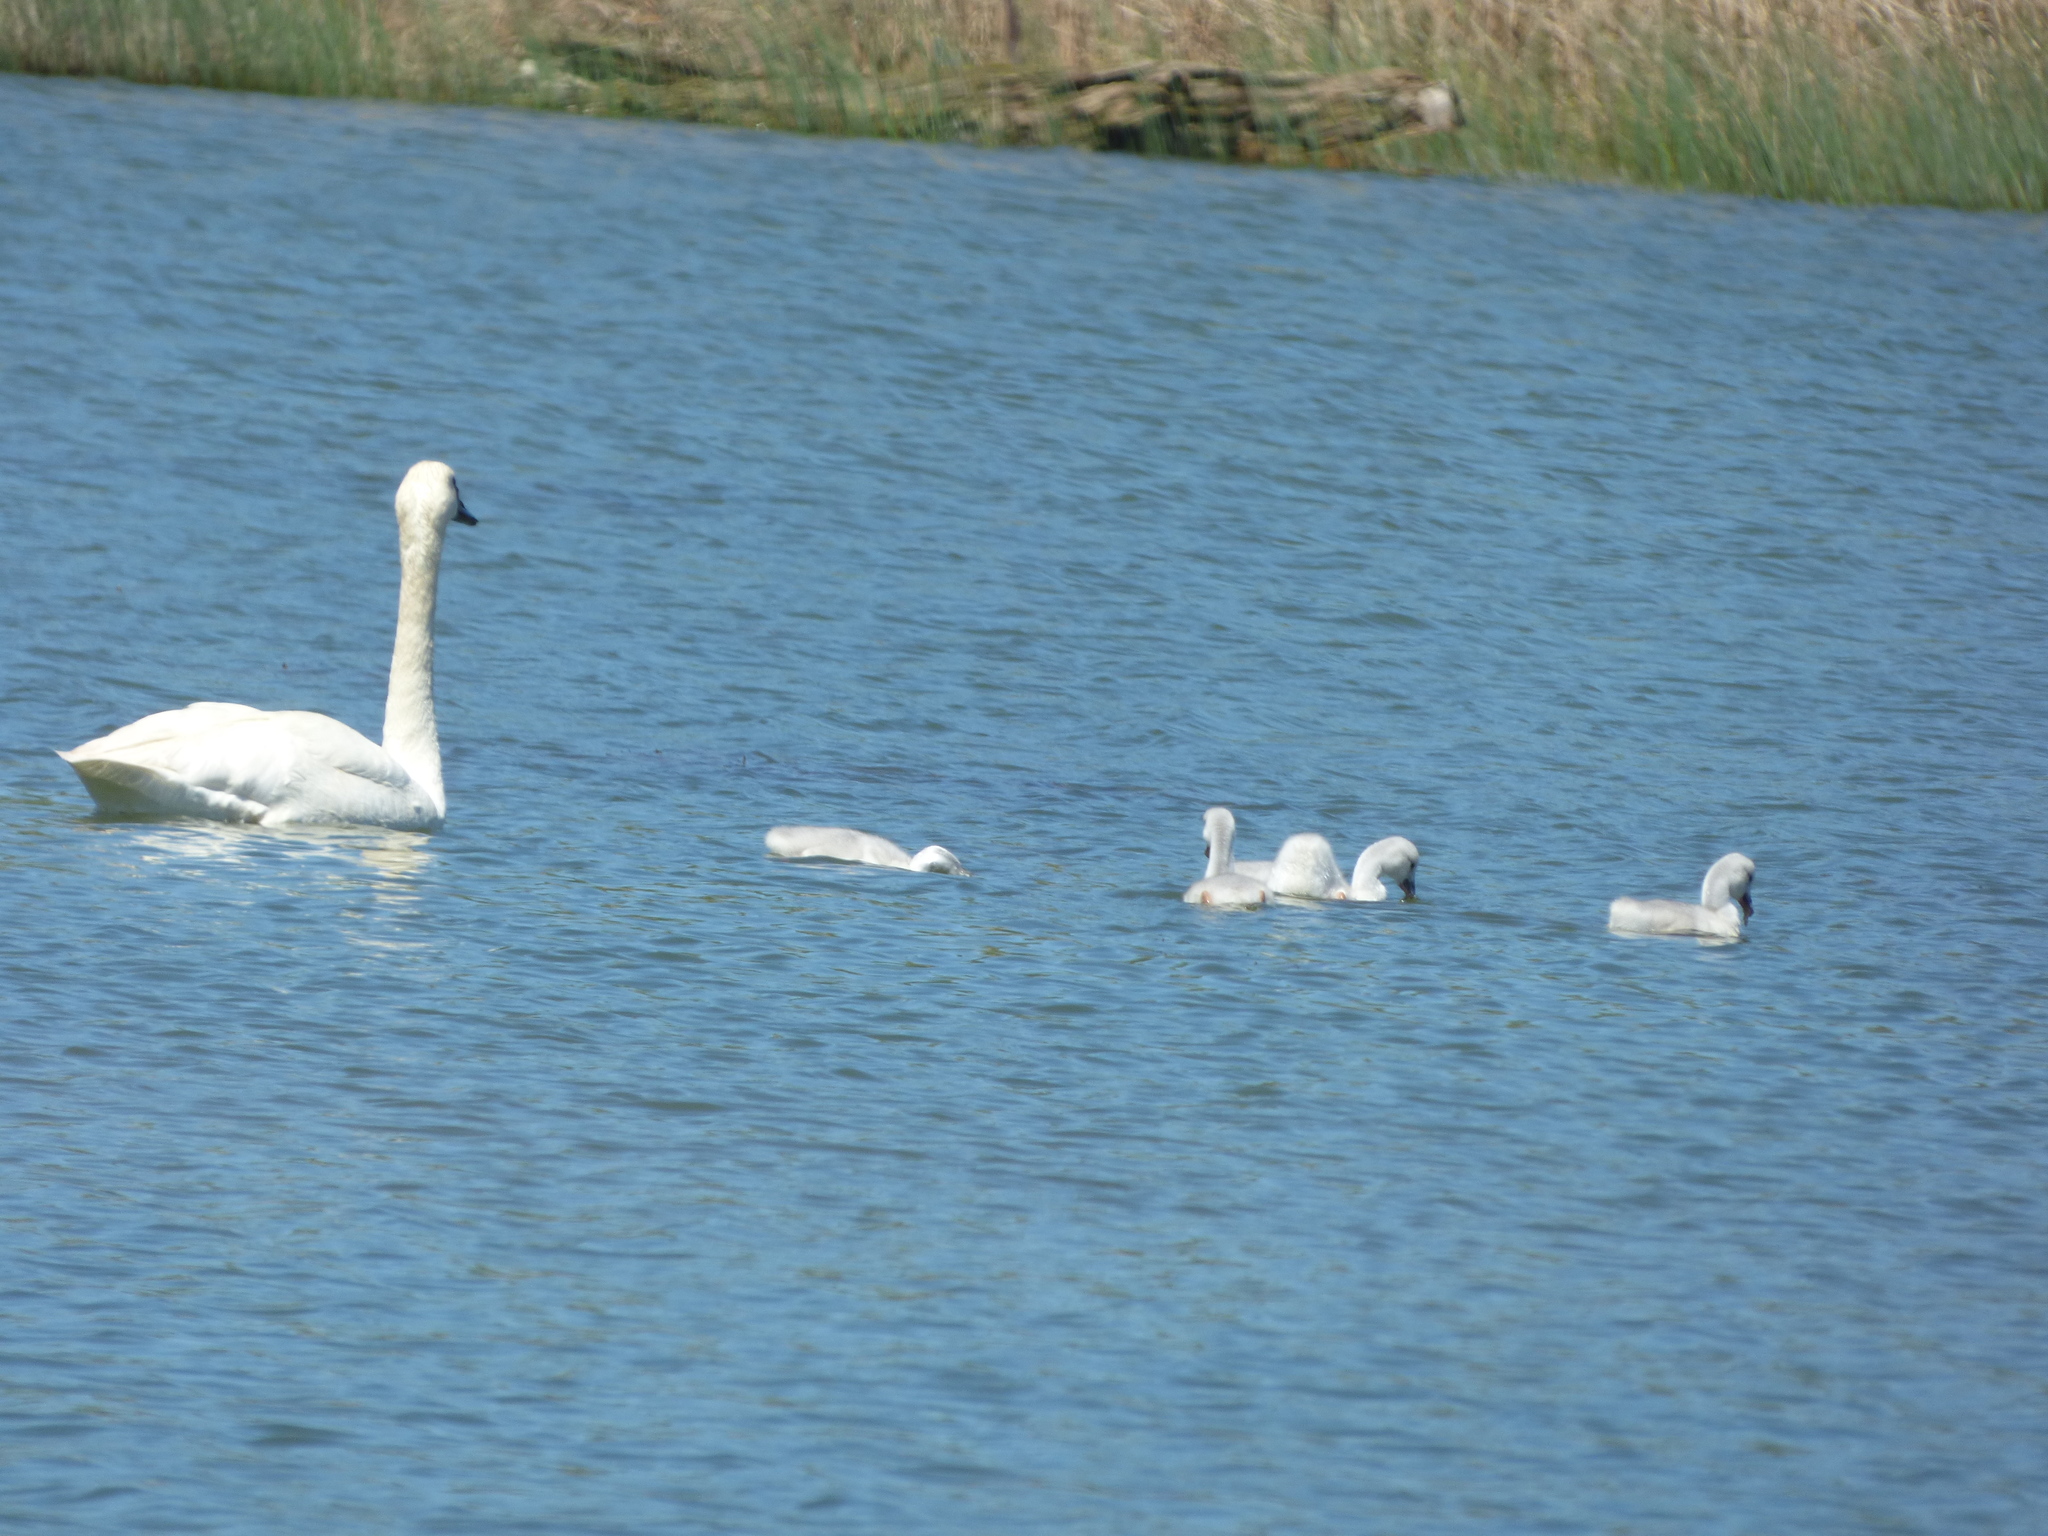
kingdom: Animalia
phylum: Chordata
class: Aves
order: Anseriformes
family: Anatidae
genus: Cygnus
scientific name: Cygnus buccinator
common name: Trumpeter swan
